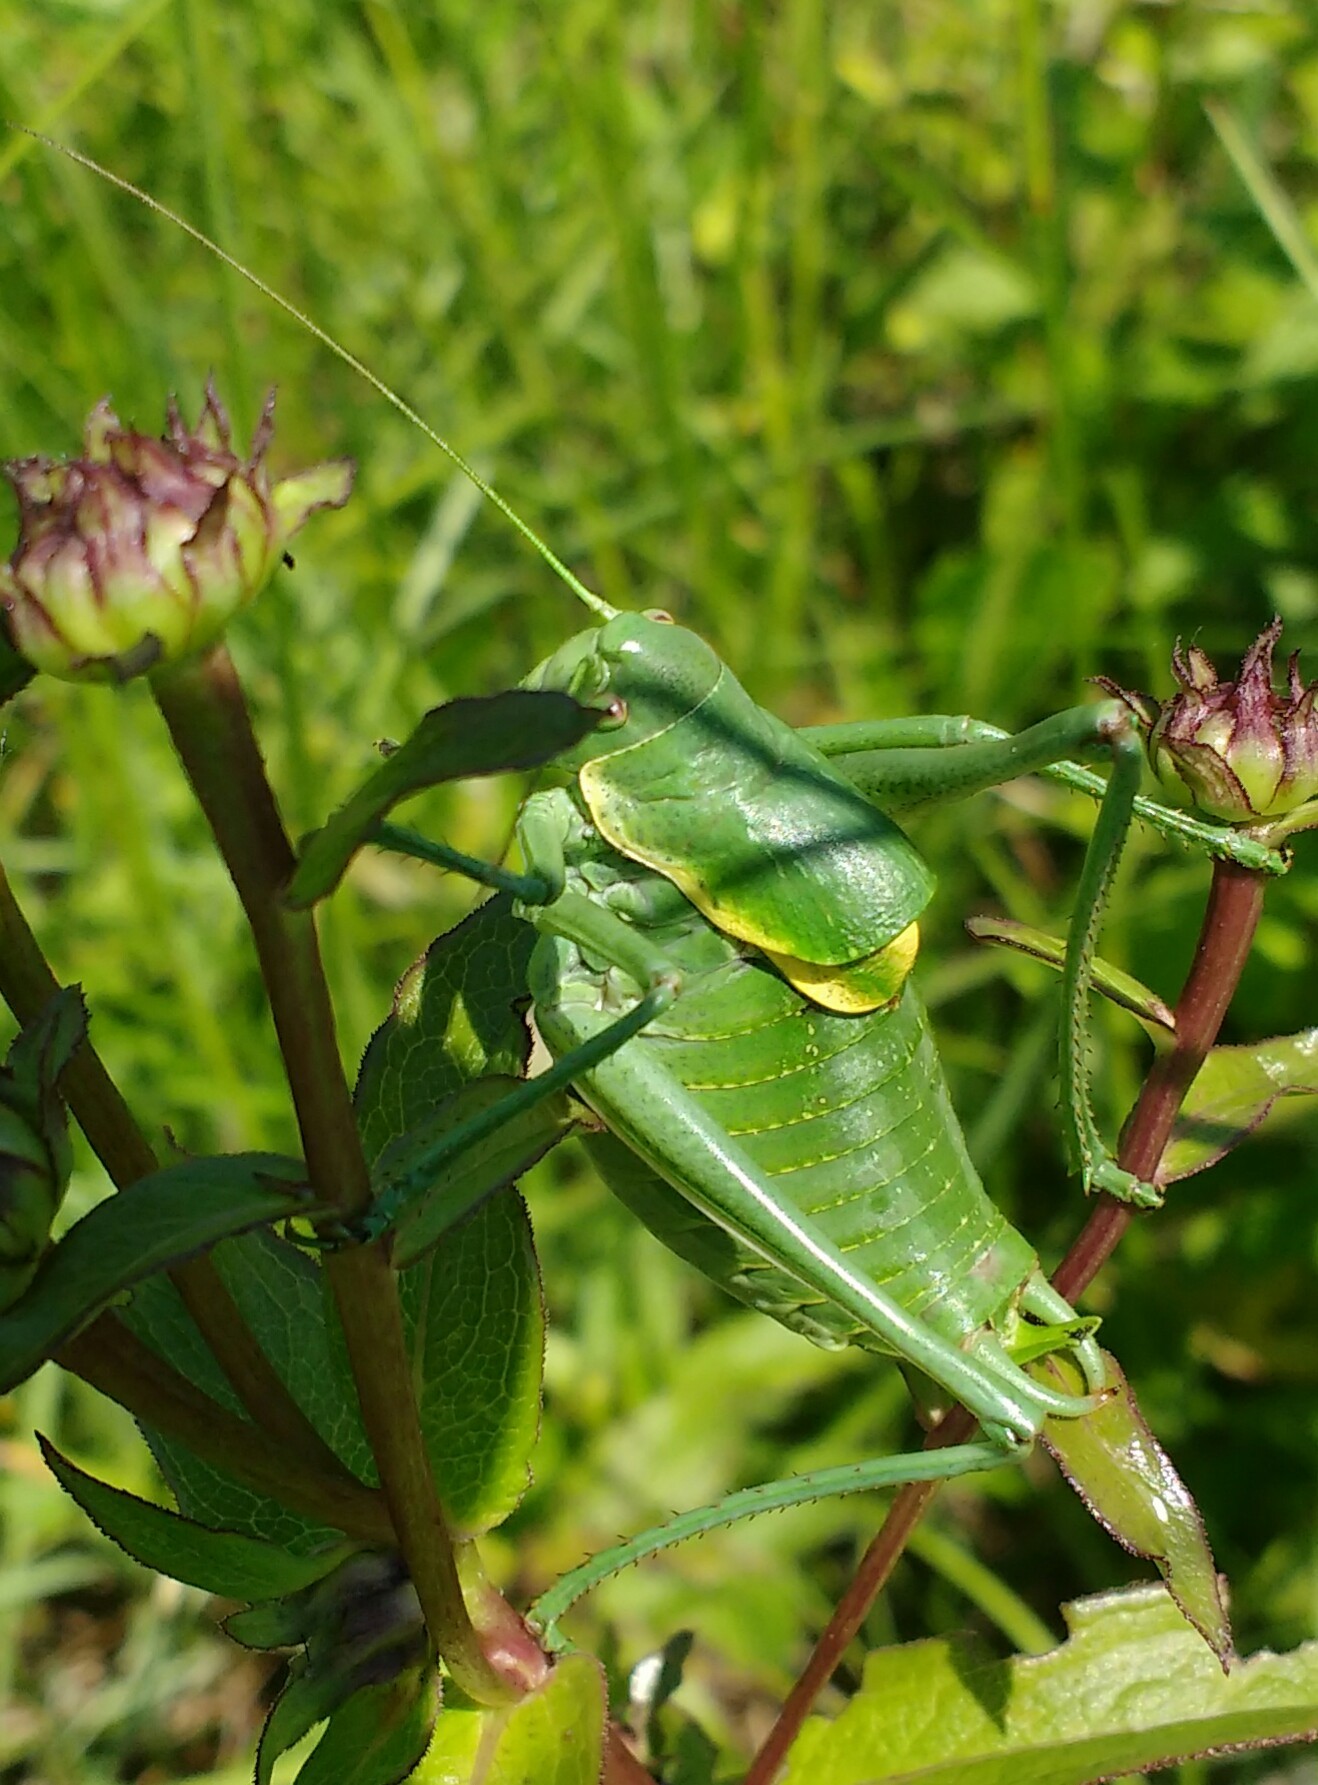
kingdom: Animalia
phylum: Arthropoda
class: Insecta
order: Orthoptera
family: Tettigoniidae
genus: Polysarcus
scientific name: Polysarcus denticauda
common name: Large saw-tailed bush-cricket
